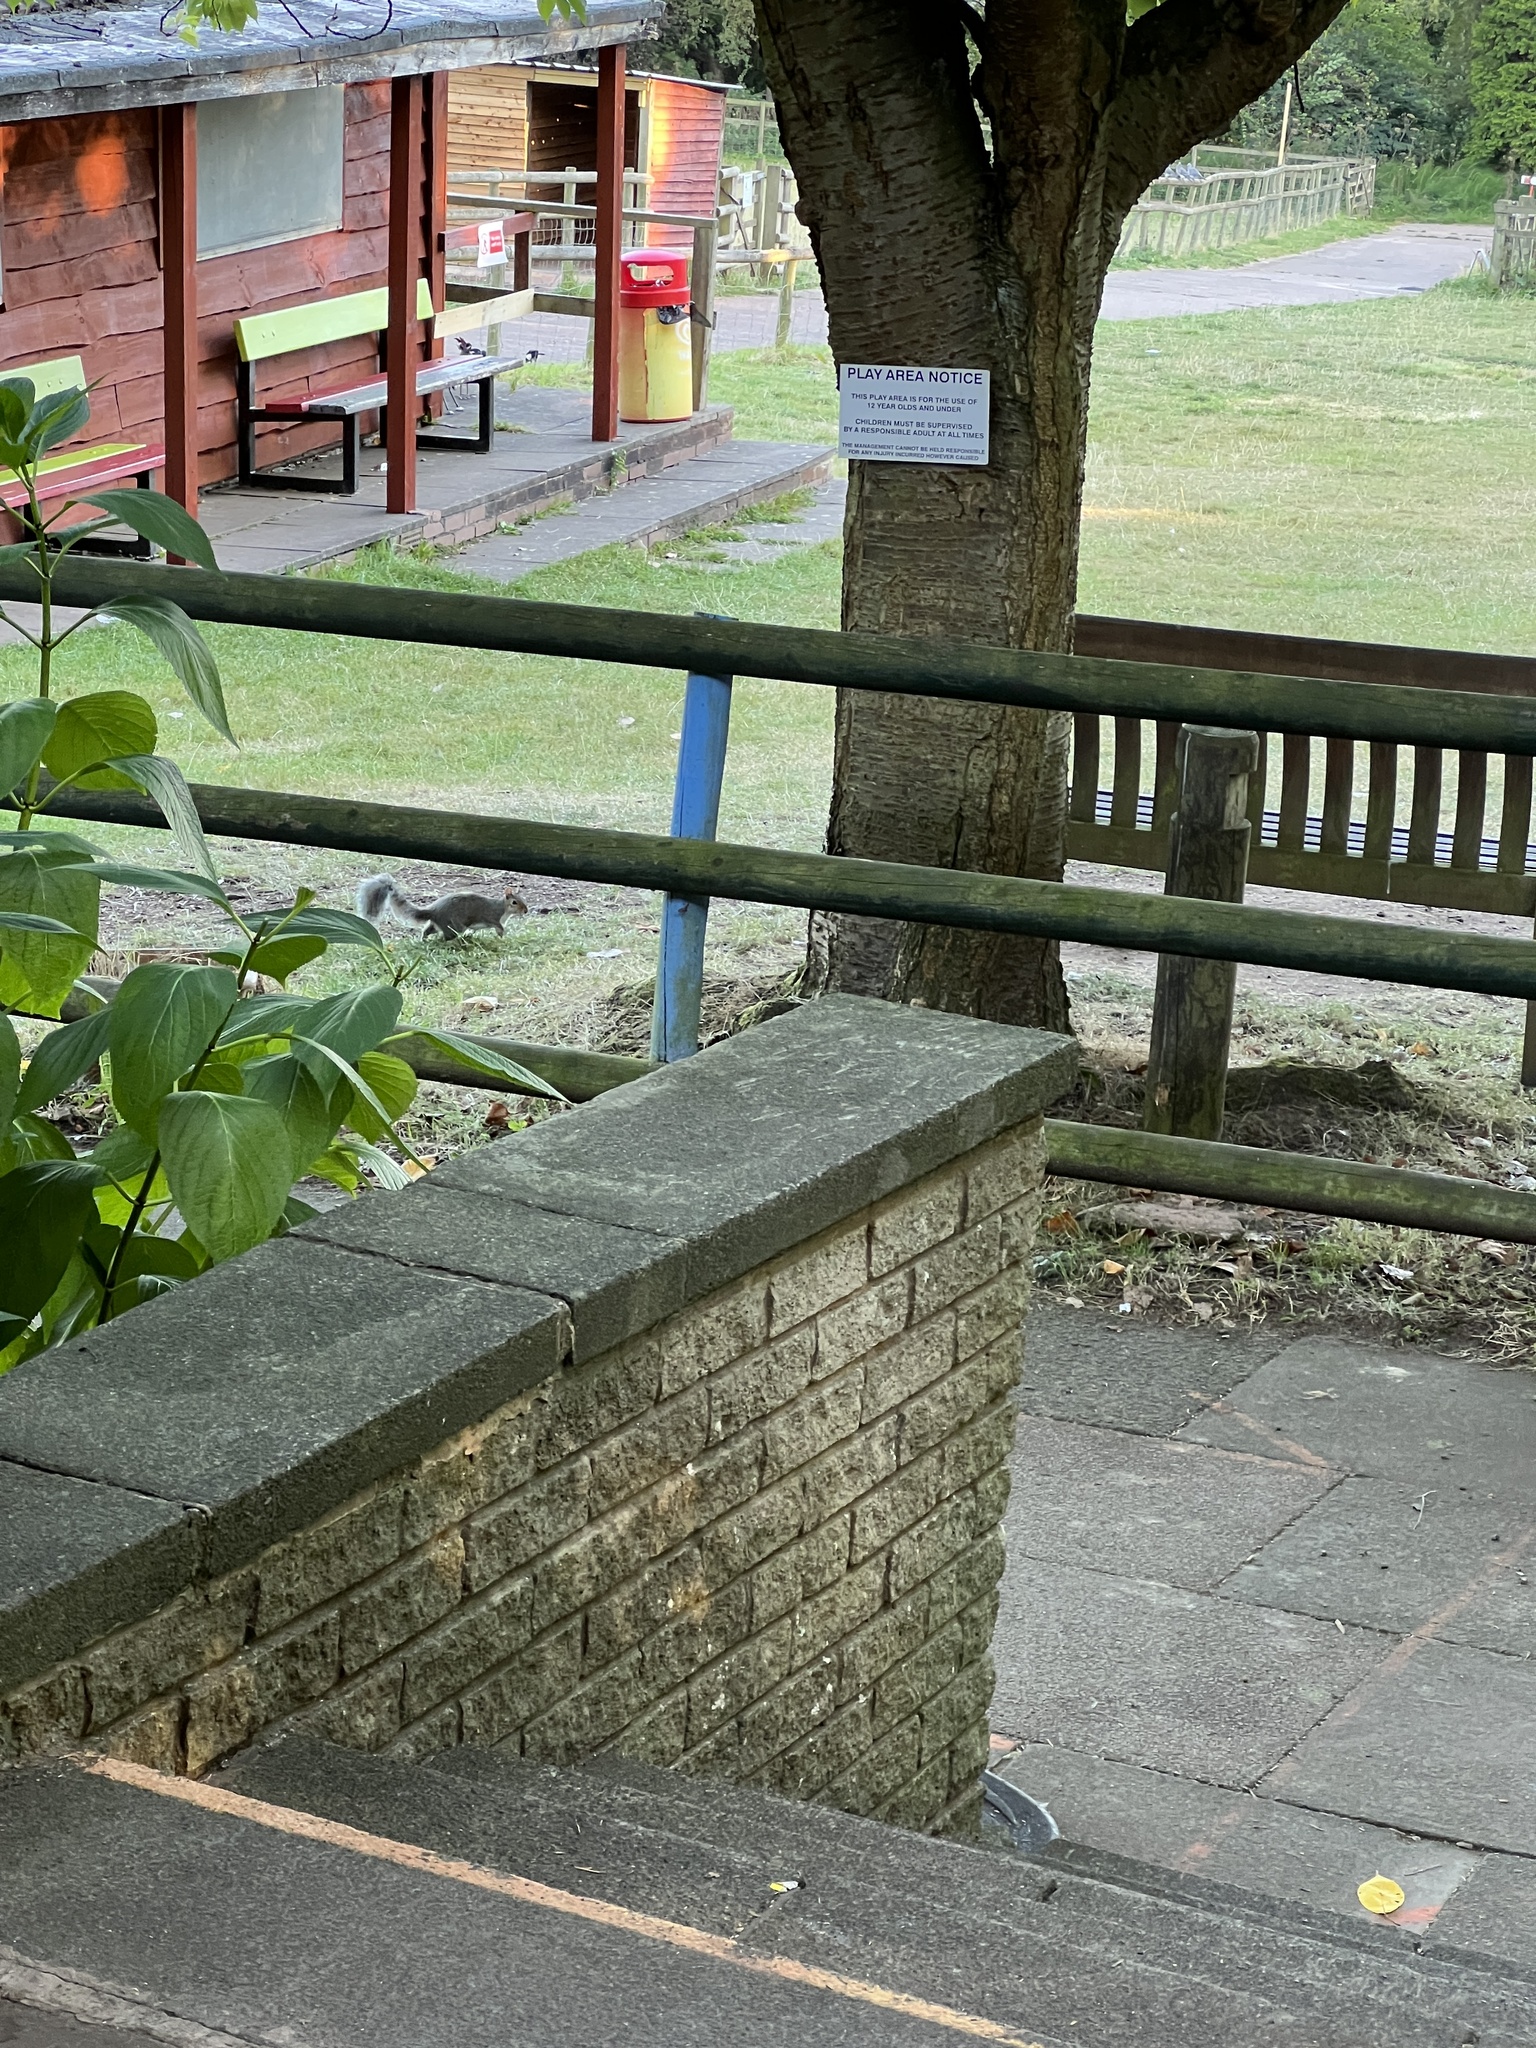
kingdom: Animalia
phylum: Chordata
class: Mammalia
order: Rodentia
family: Sciuridae
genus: Sciurus
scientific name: Sciurus carolinensis
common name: Eastern gray squirrel
